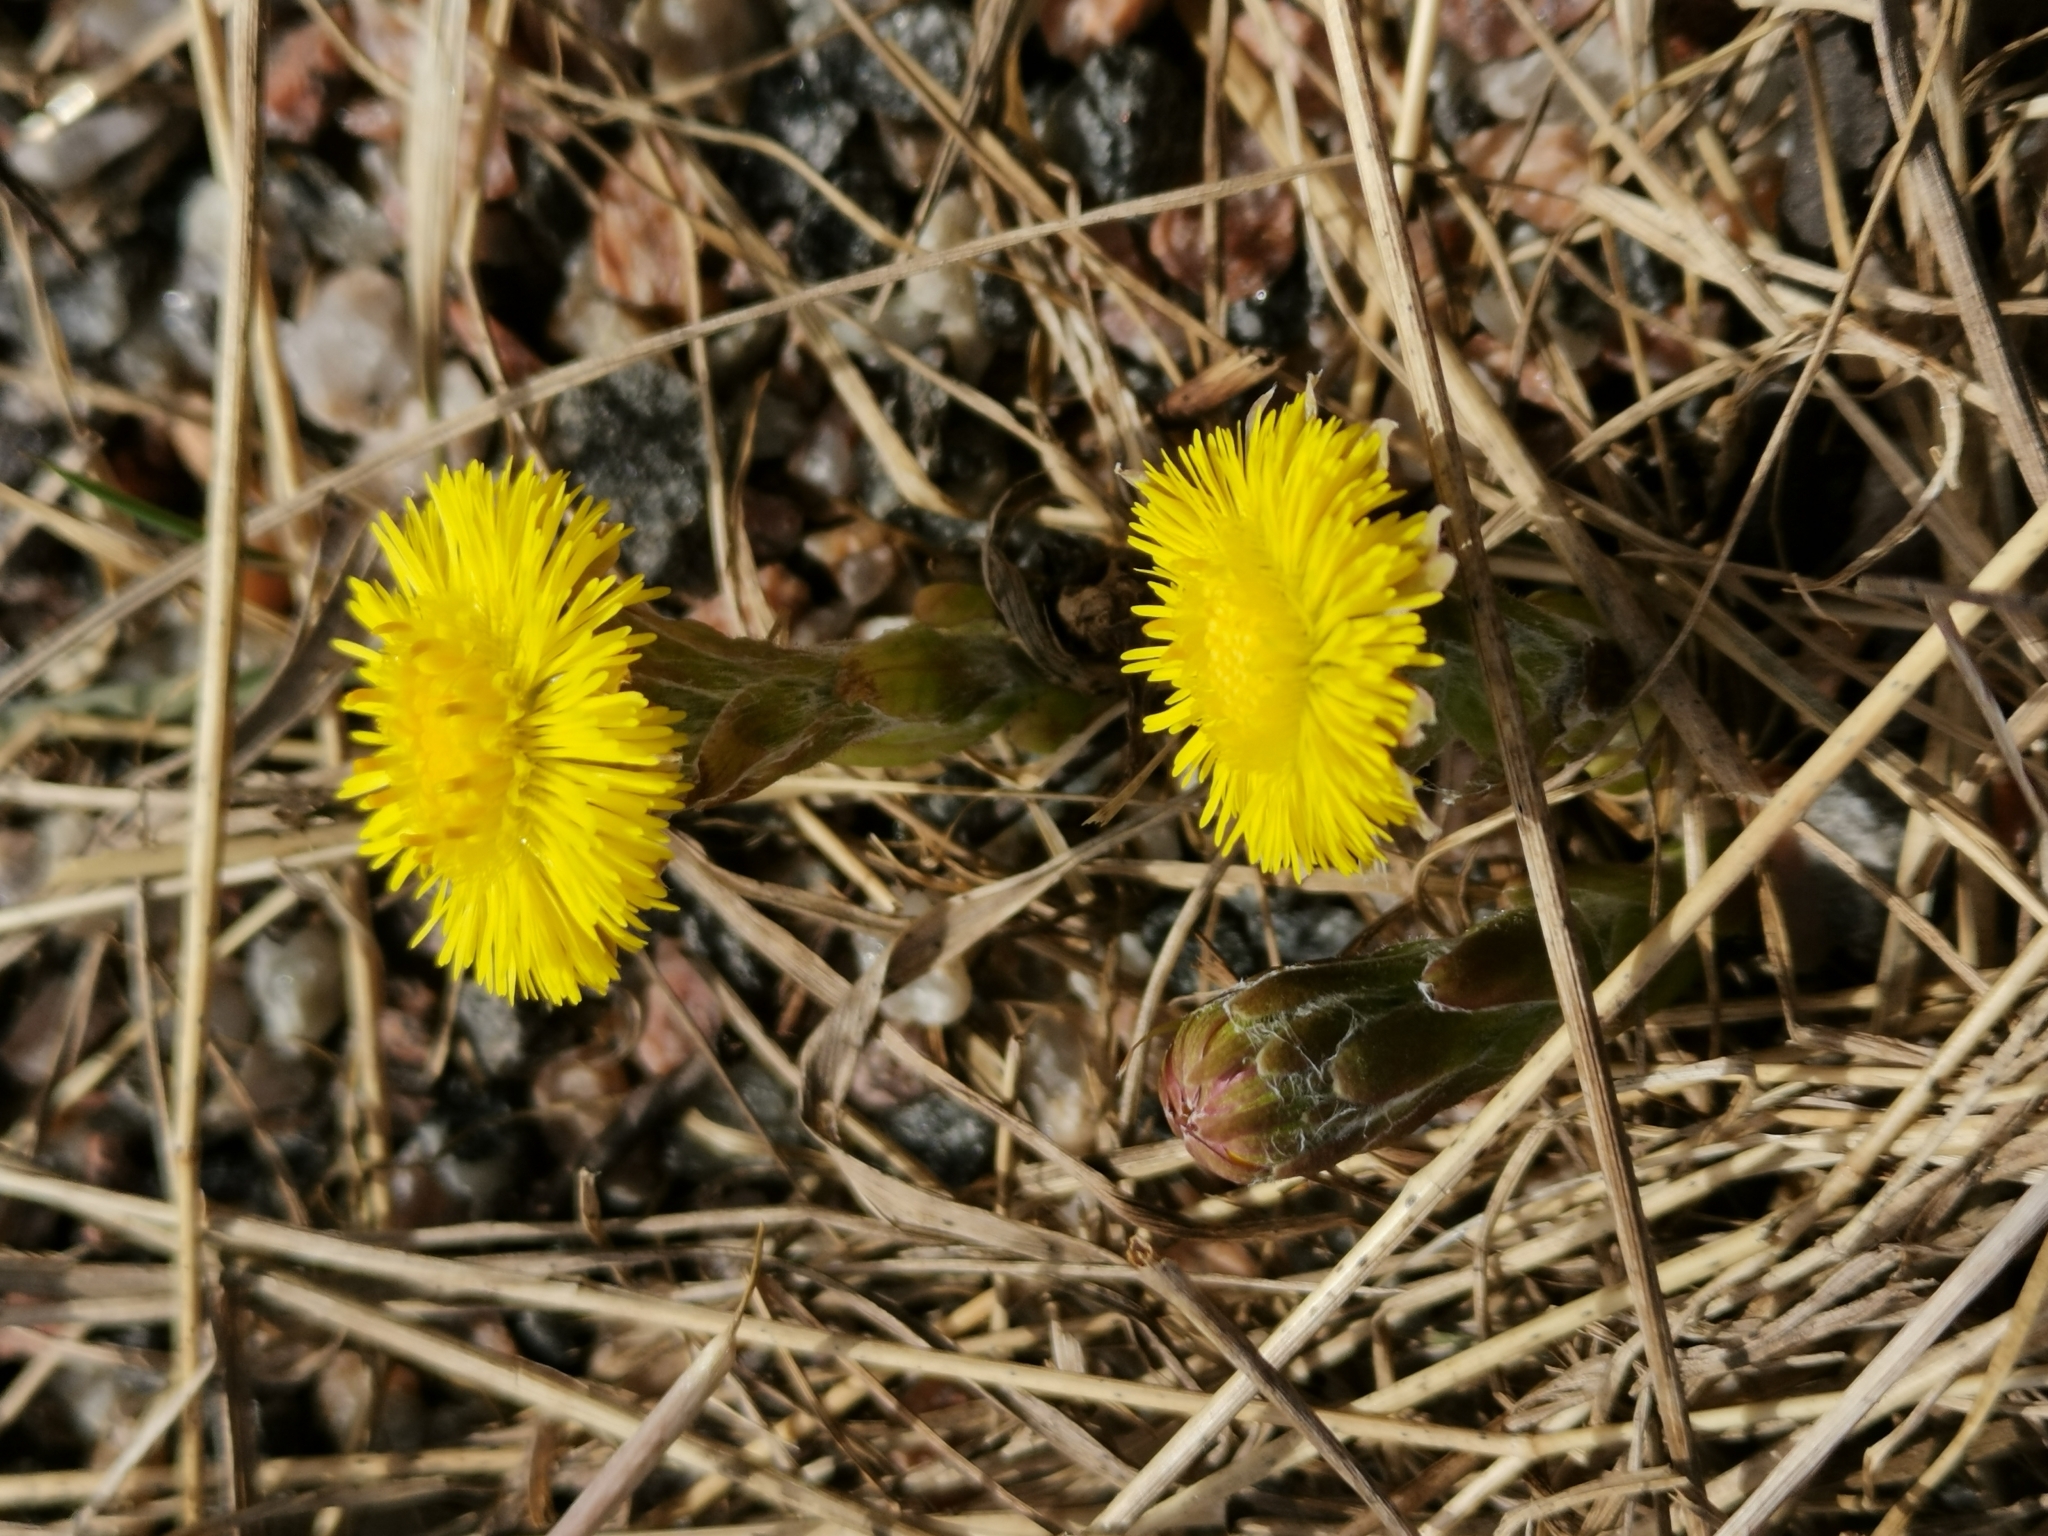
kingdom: Plantae
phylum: Tracheophyta
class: Magnoliopsida
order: Asterales
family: Asteraceae
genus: Tussilago
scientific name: Tussilago farfara
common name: Coltsfoot
